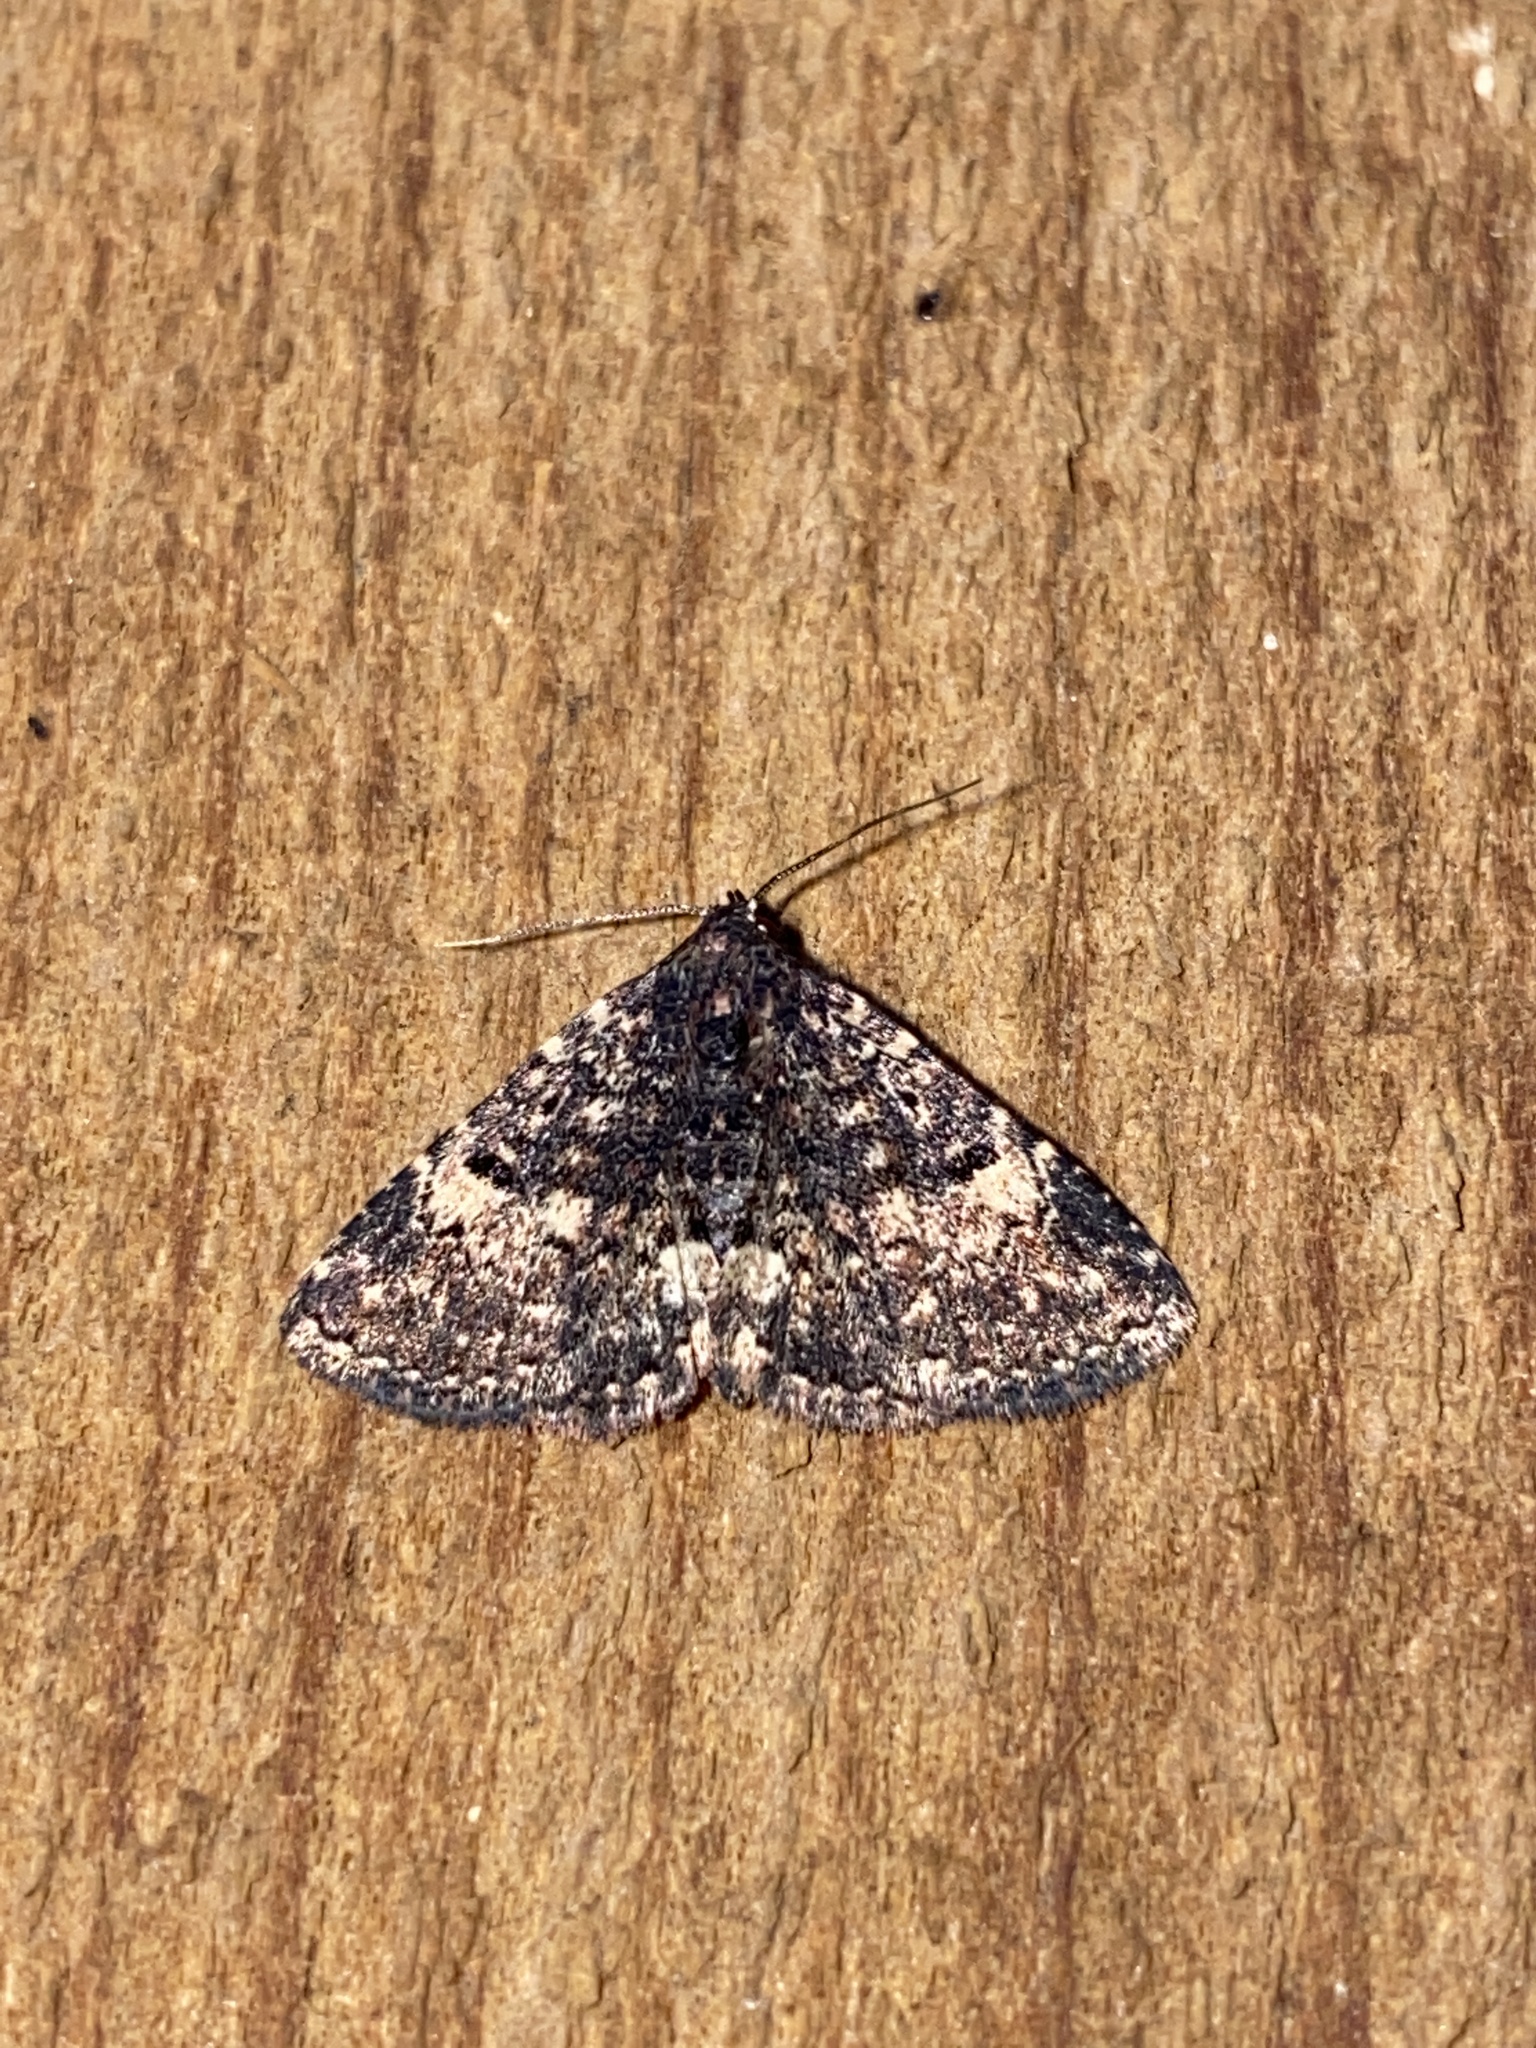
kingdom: Animalia
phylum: Arthropoda
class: Insecta
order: Lepidoptera
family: Erebidae
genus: Metalectra
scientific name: Metalectra diabolica
